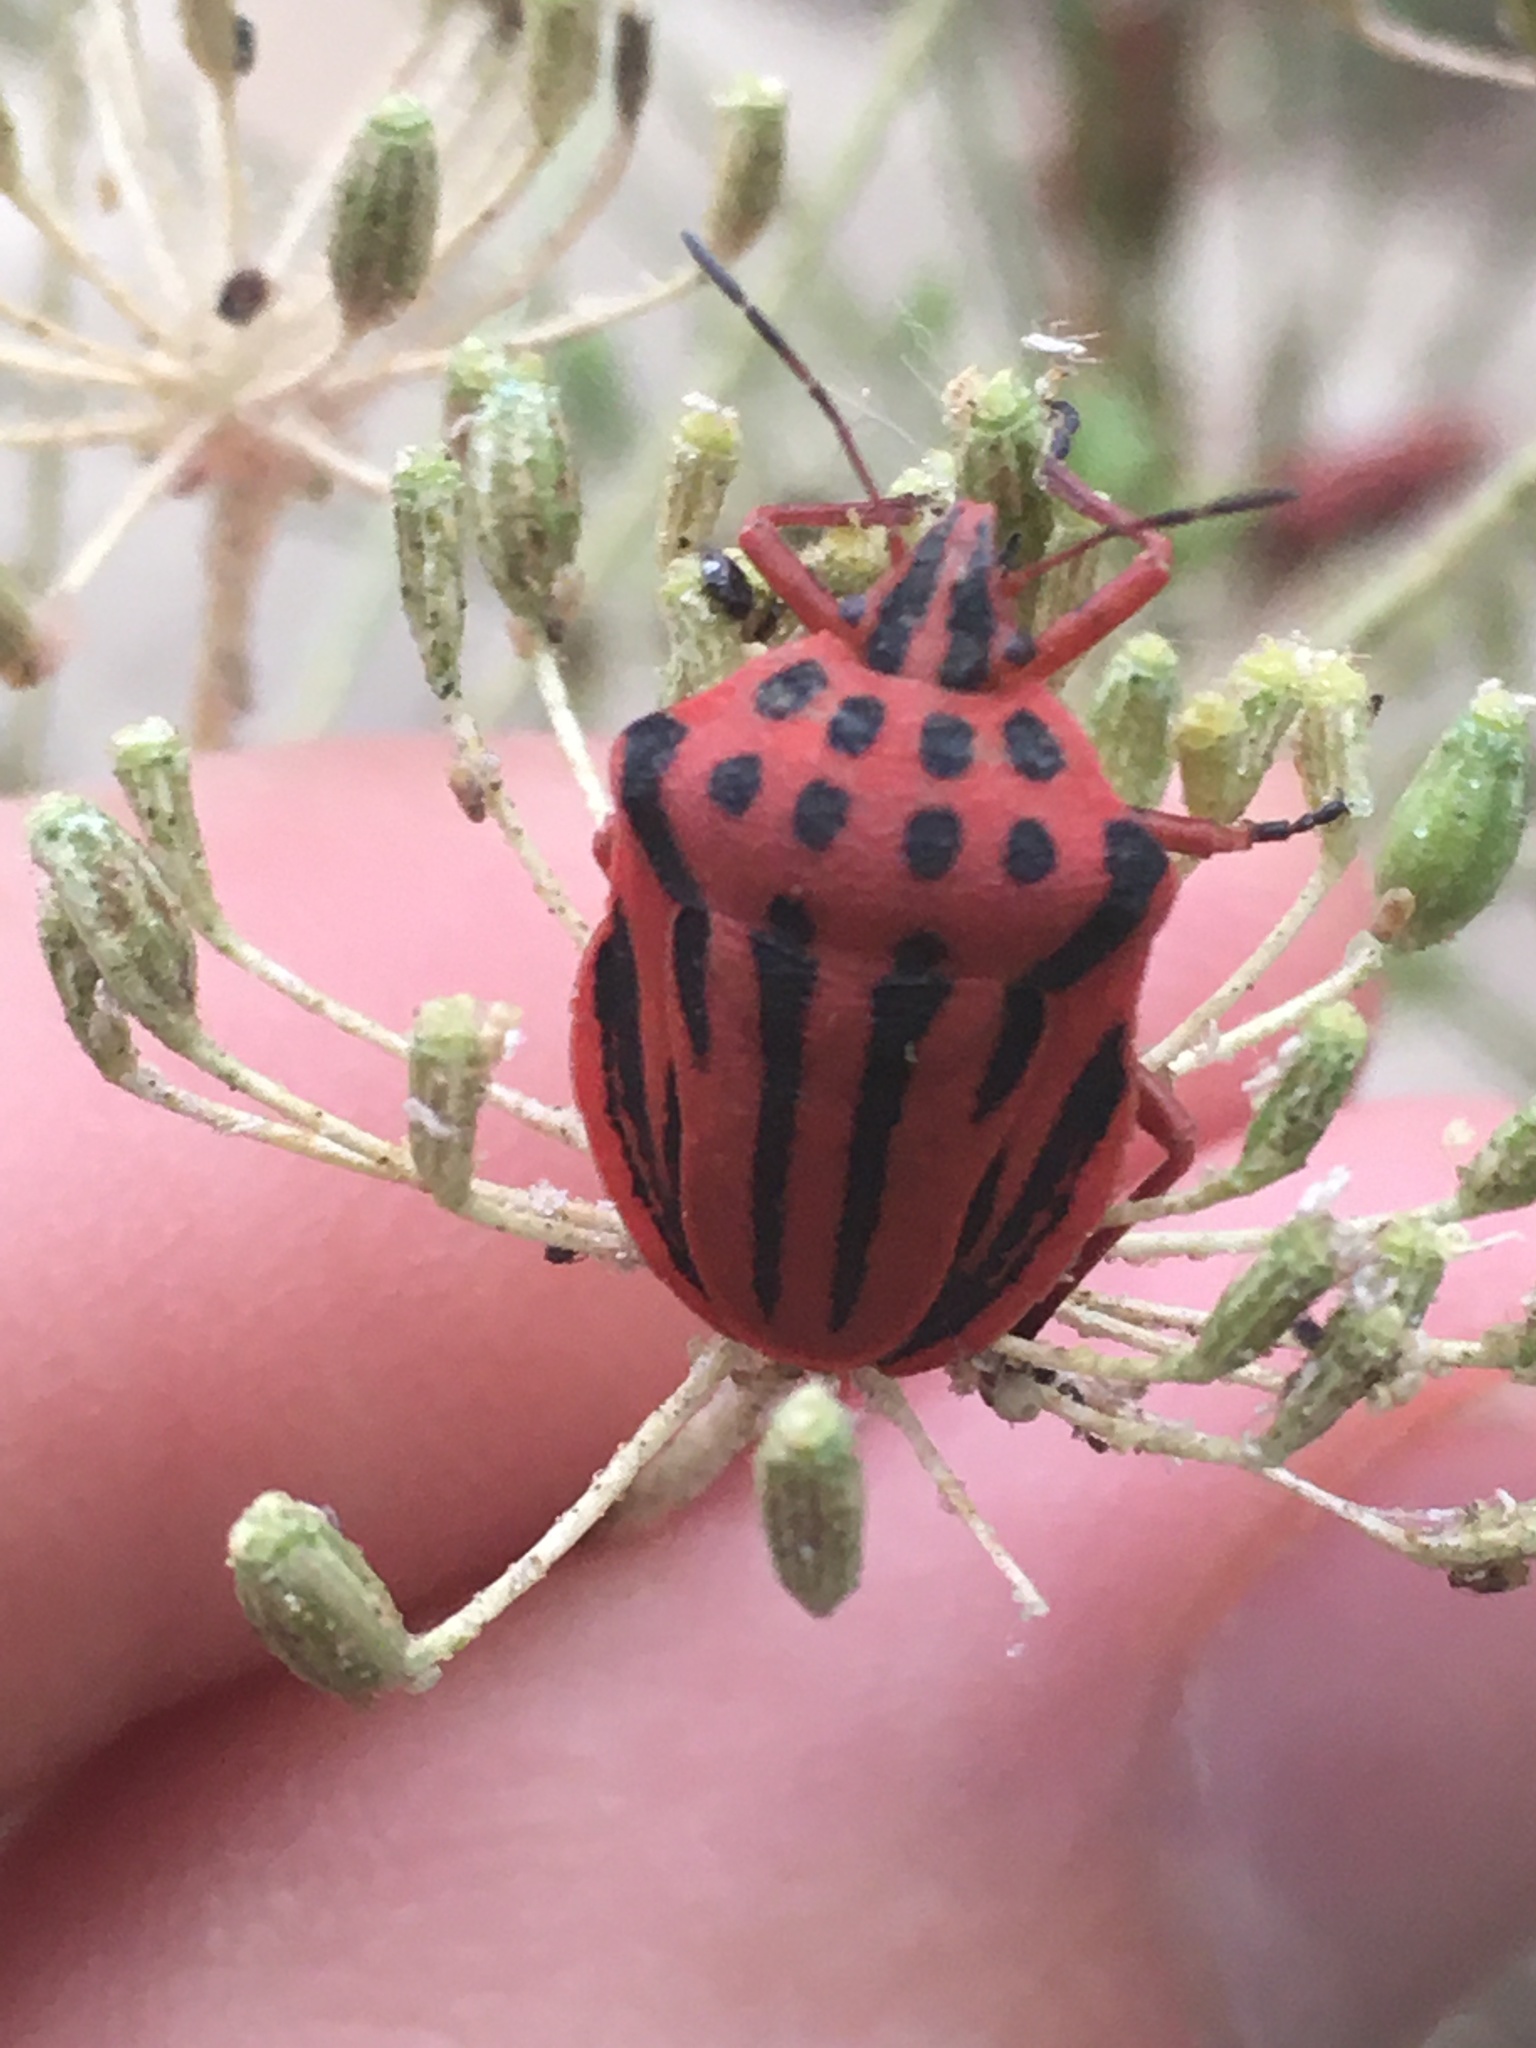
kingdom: Animalia
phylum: Arthropoda
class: Insecta
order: Hemiptera
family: Pentatomidae
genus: Graphosoma
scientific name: Graphosoma semipunctatum
